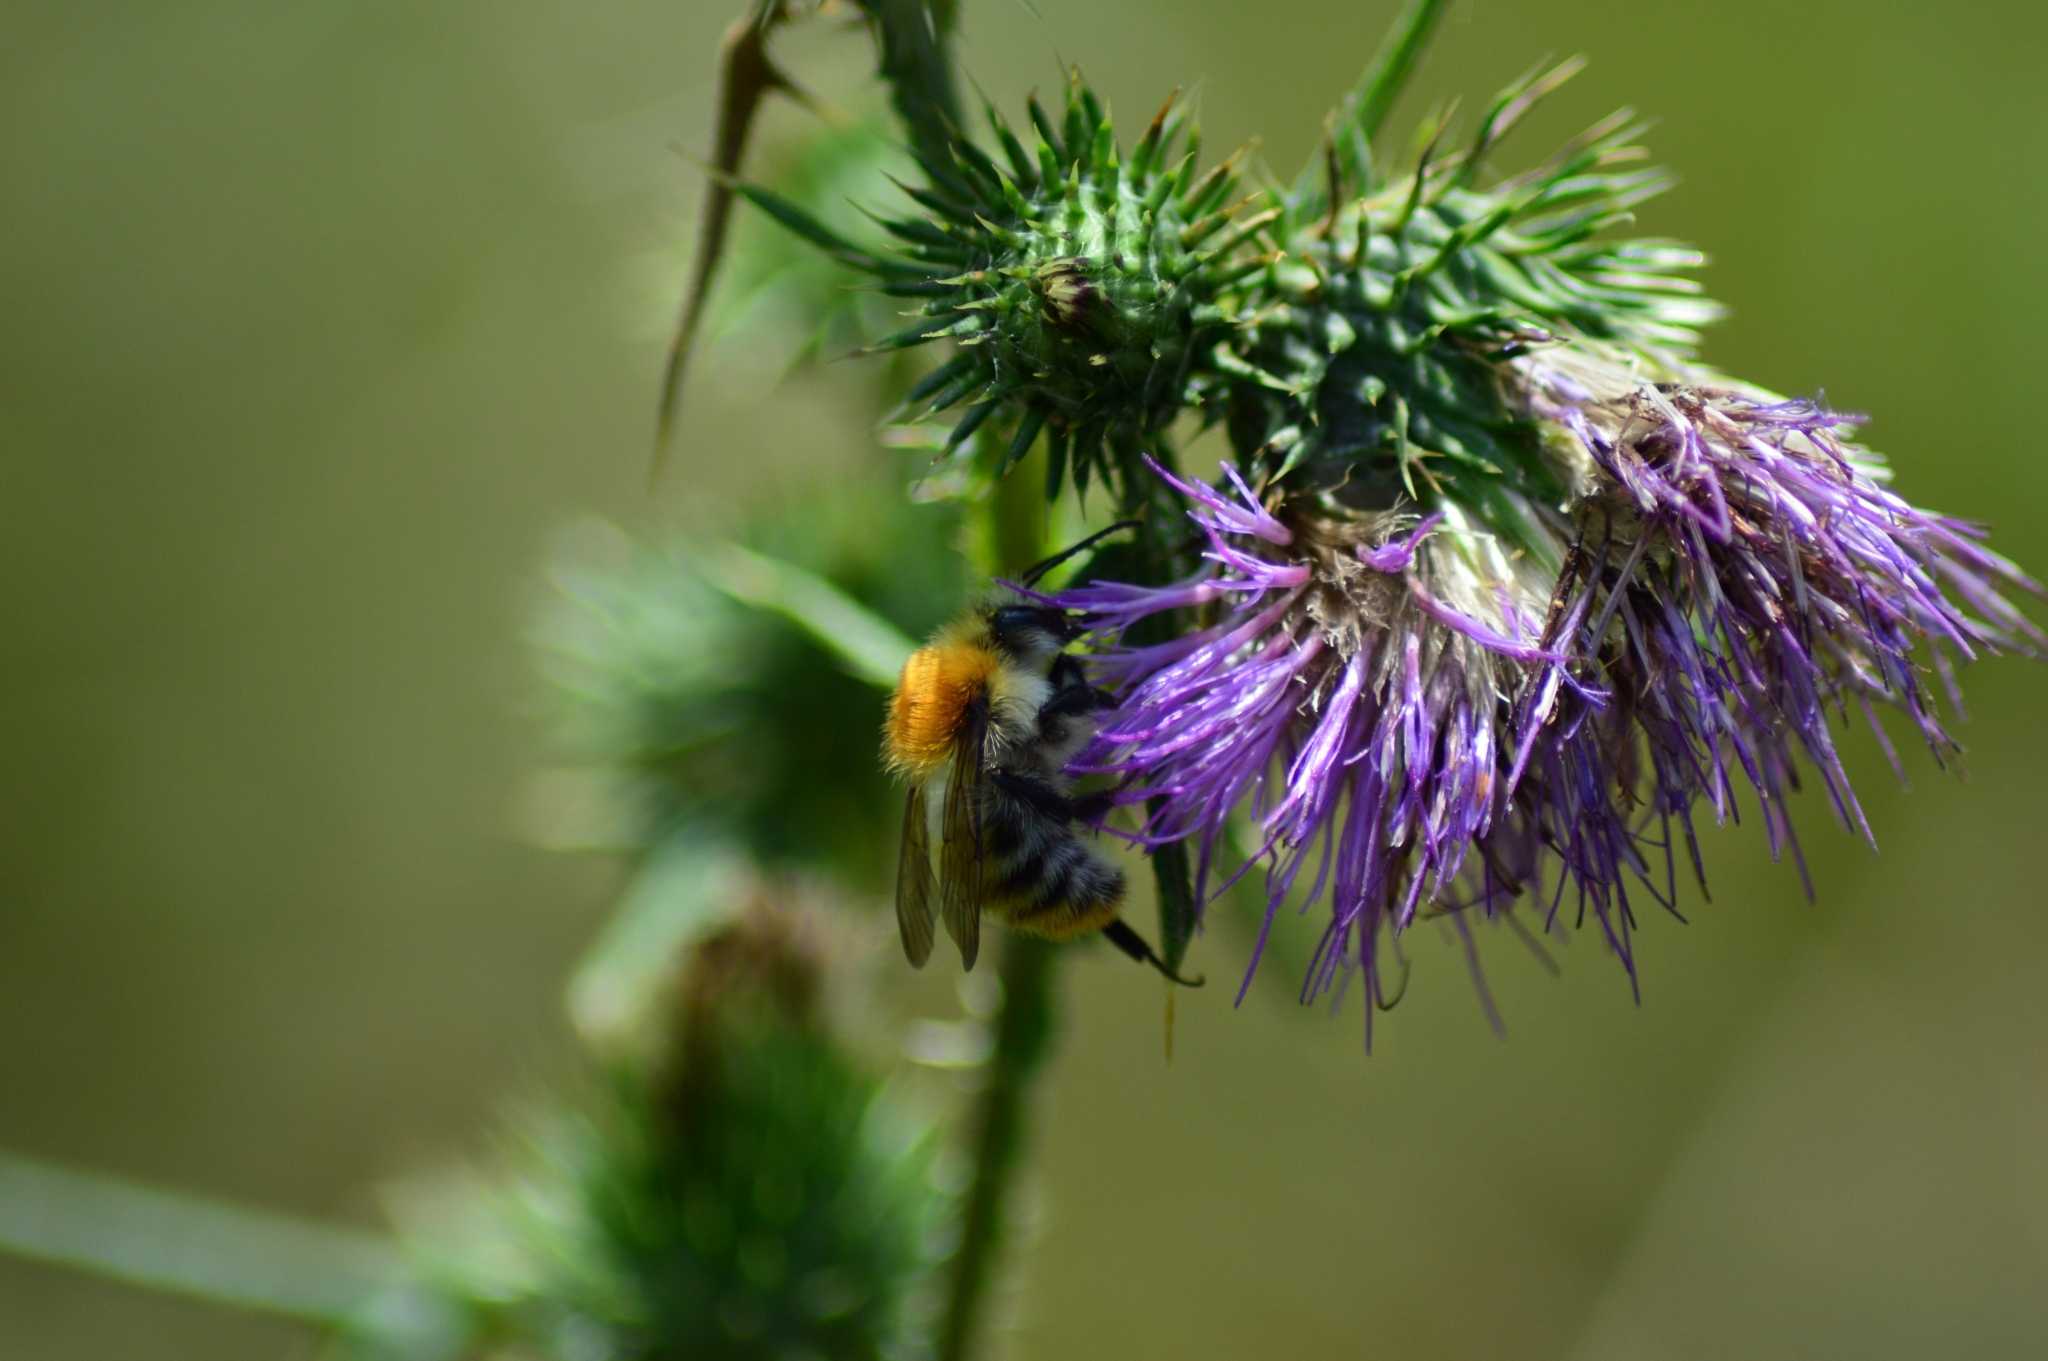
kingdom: Animalia
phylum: Arthropoda
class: Insecta
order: Hymenoptera
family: Apidae
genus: Bombus
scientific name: Bombus pascuorum
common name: Common carder bee
